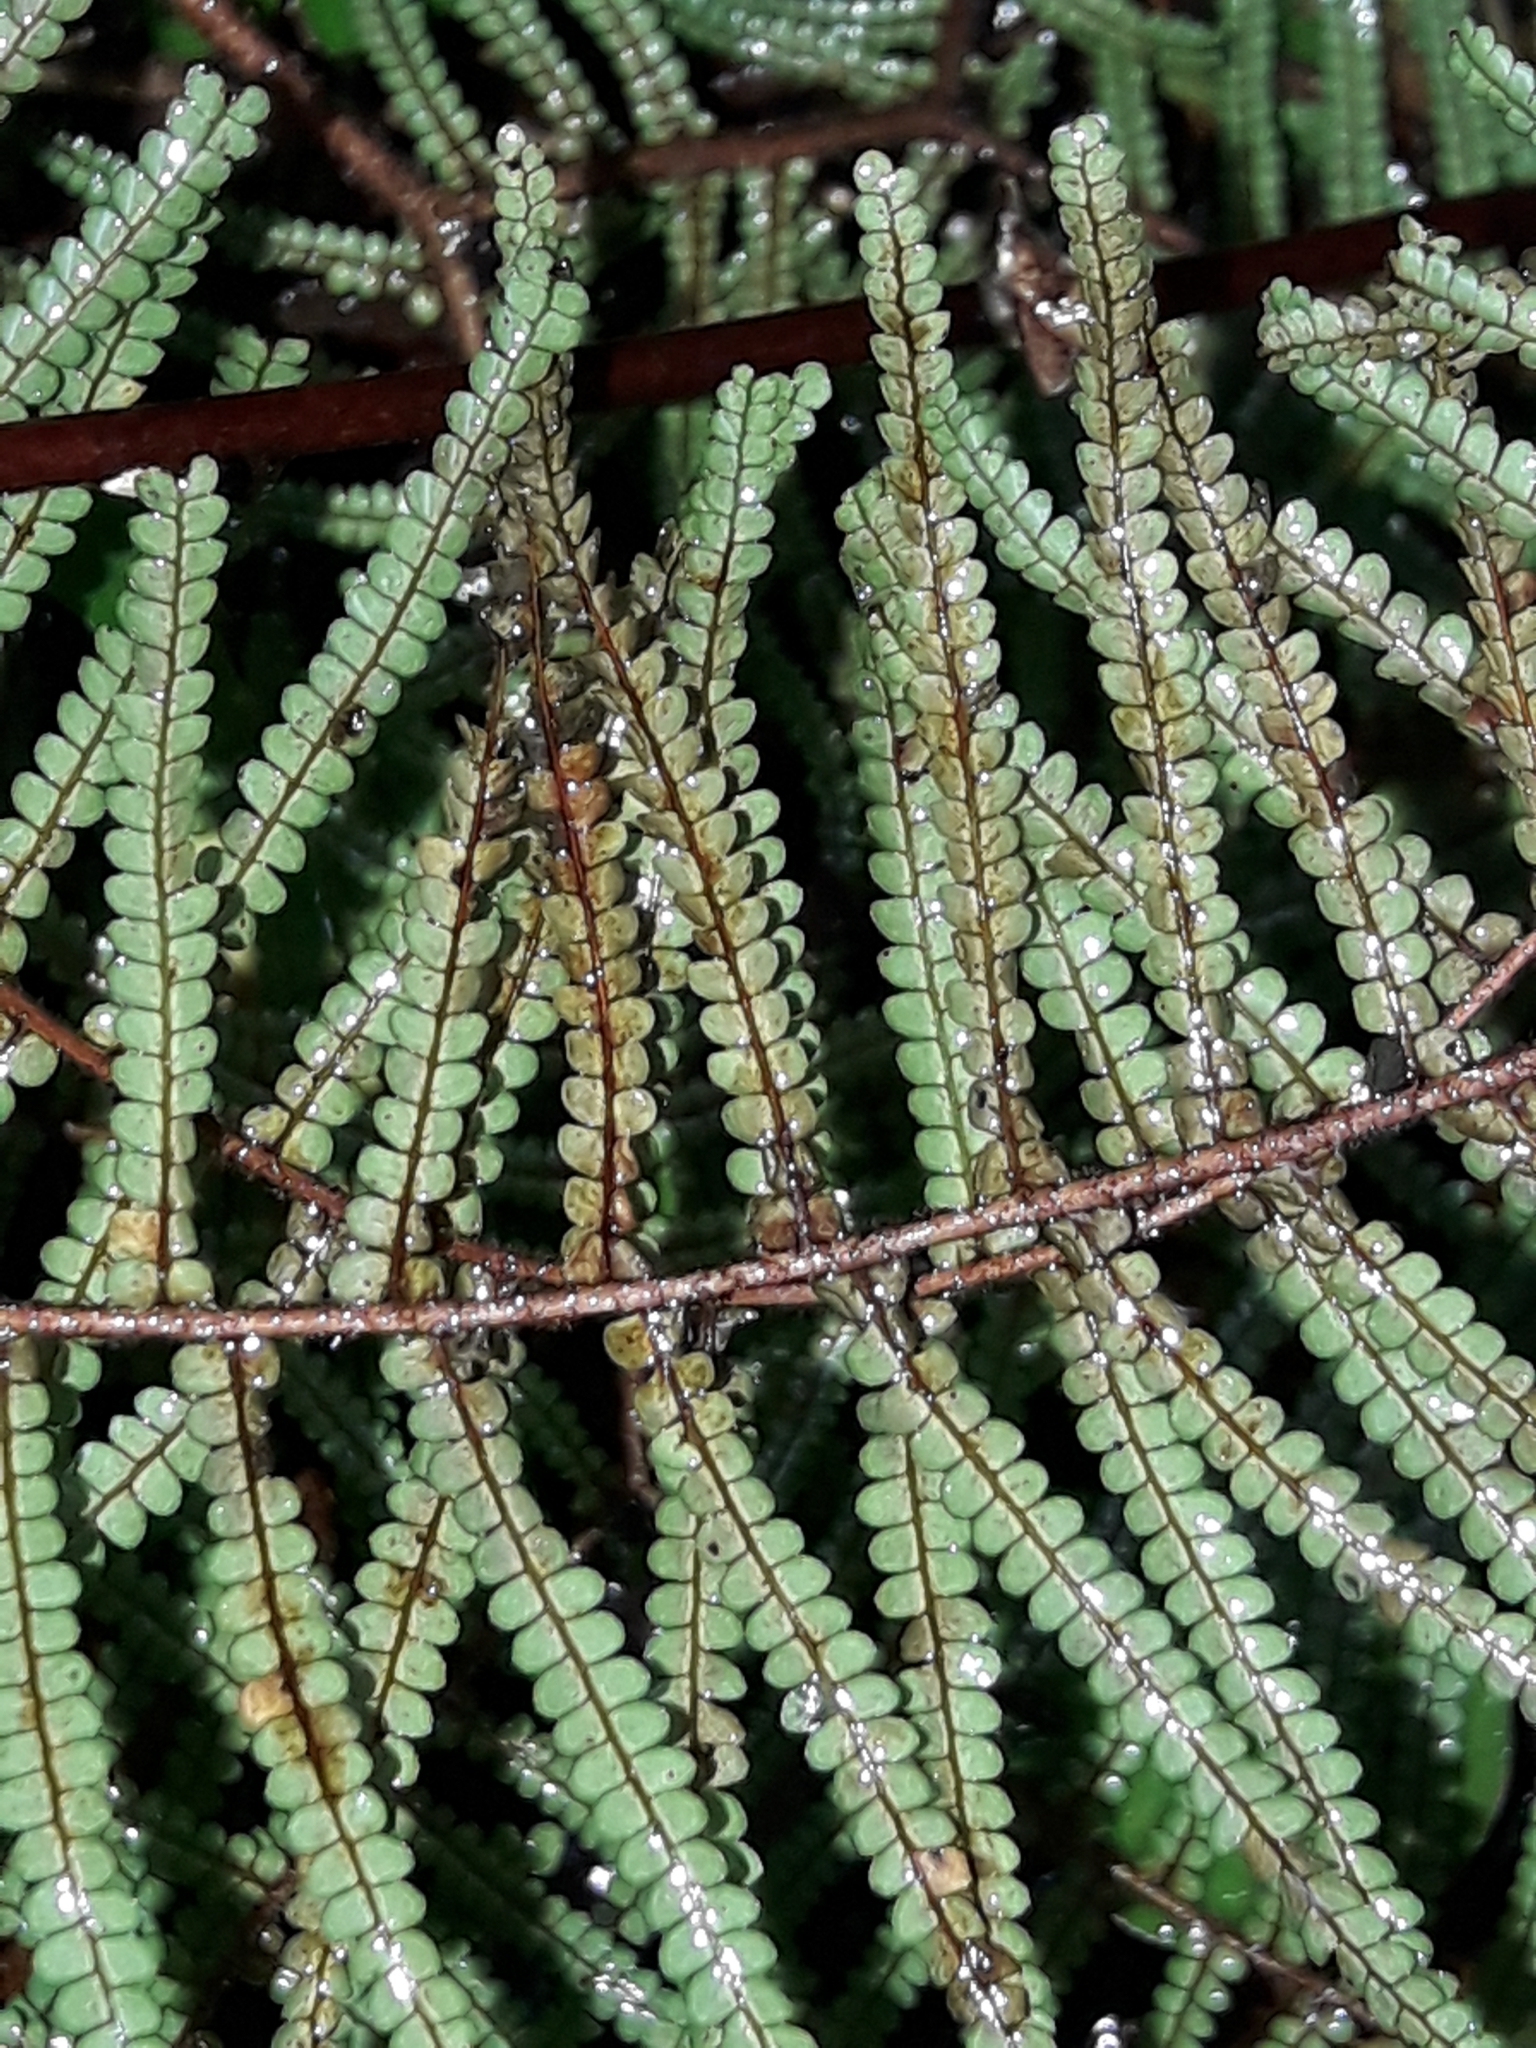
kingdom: Plantae
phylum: Tracheophyta
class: Polypodiopsida
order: Gleicheniales
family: Gleicheniaceae
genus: Gleichenia
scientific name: Gleichenia microphylla
